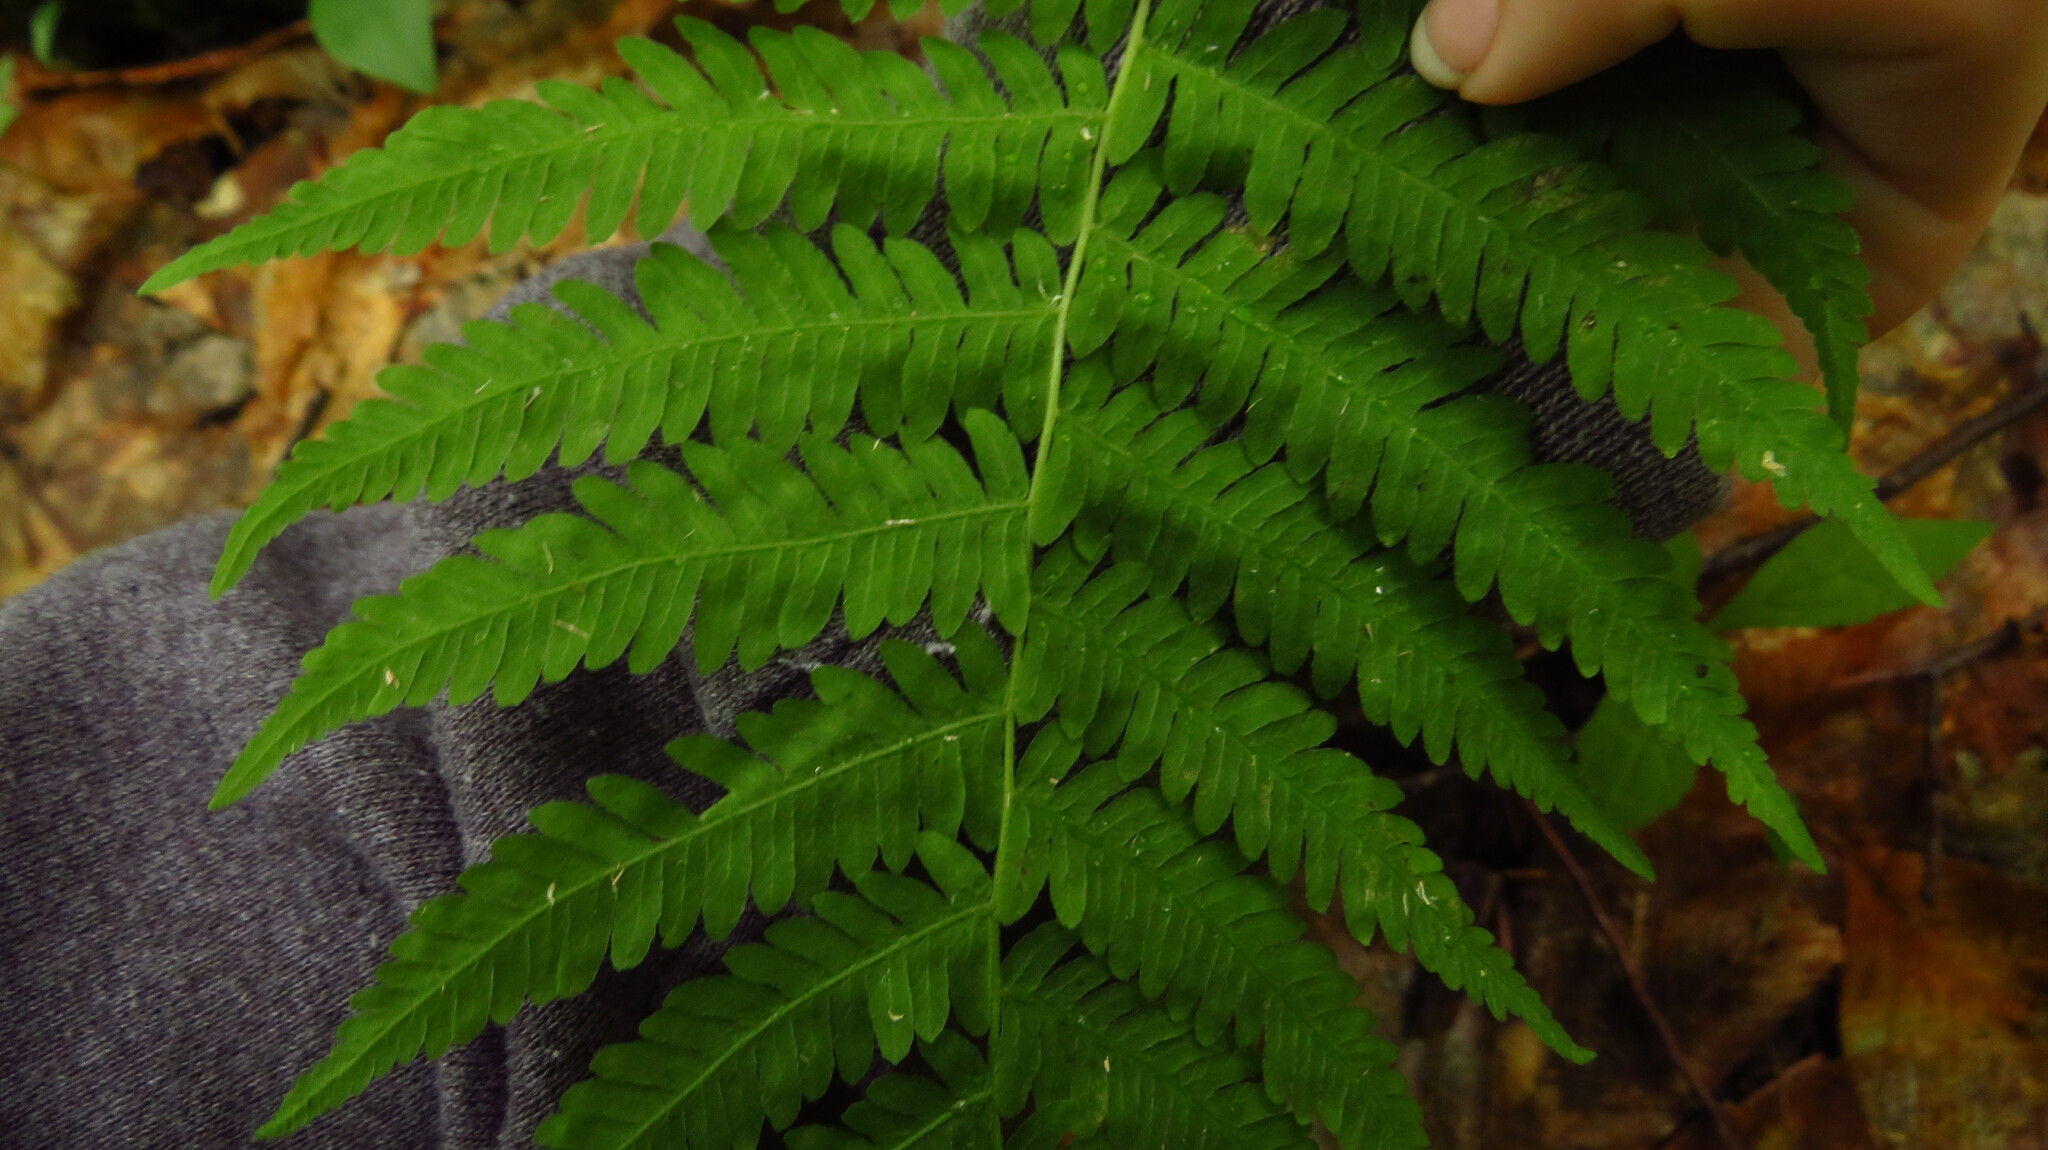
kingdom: Plantae
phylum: Tracheophyta
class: Polypodiopsida
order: Polypodiales
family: Thelypteridaceae
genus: Amauropelta
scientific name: Amauropelta noveboracensis
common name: New york fern
